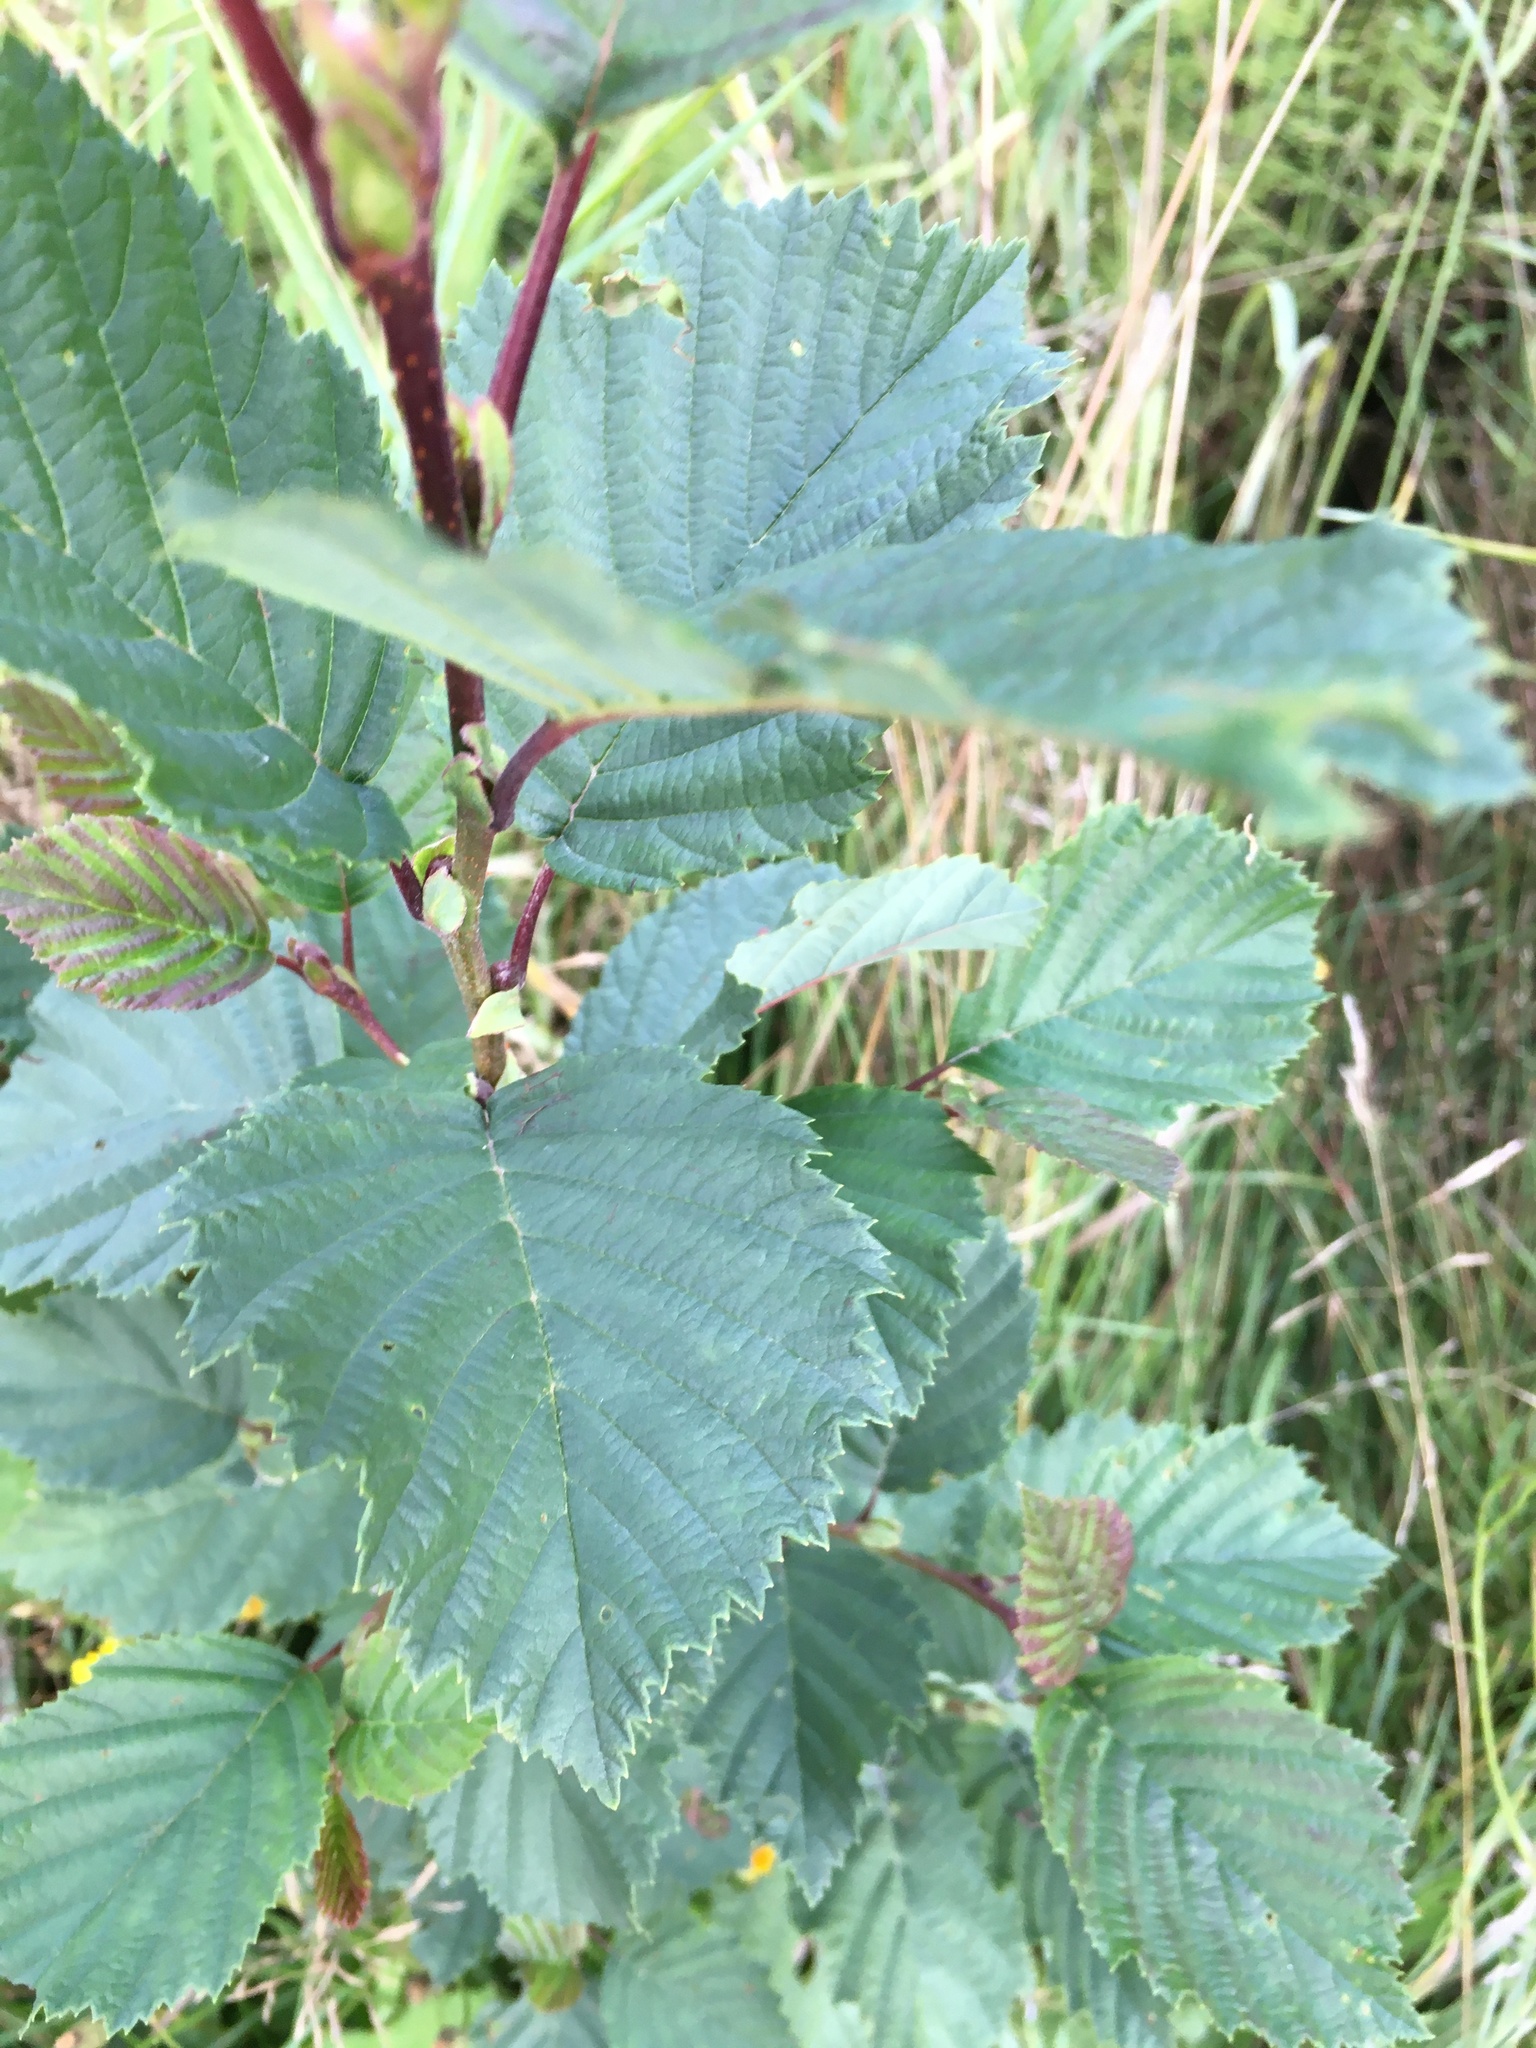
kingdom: Plantae
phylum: Tracheophyta
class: Magnoliopsida
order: Fagales
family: Betulaceae
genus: Alnus
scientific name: Alnus incana
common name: Grey alder
